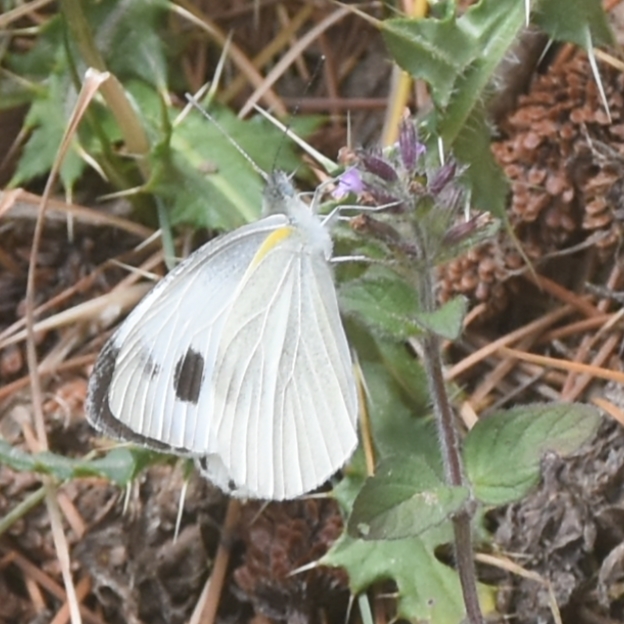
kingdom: Animalia
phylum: Arthropoda
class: Insecta
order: Lepidoptera
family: Pieridae
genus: Pieris
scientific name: Pieris canidia
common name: Indian cabbage white
